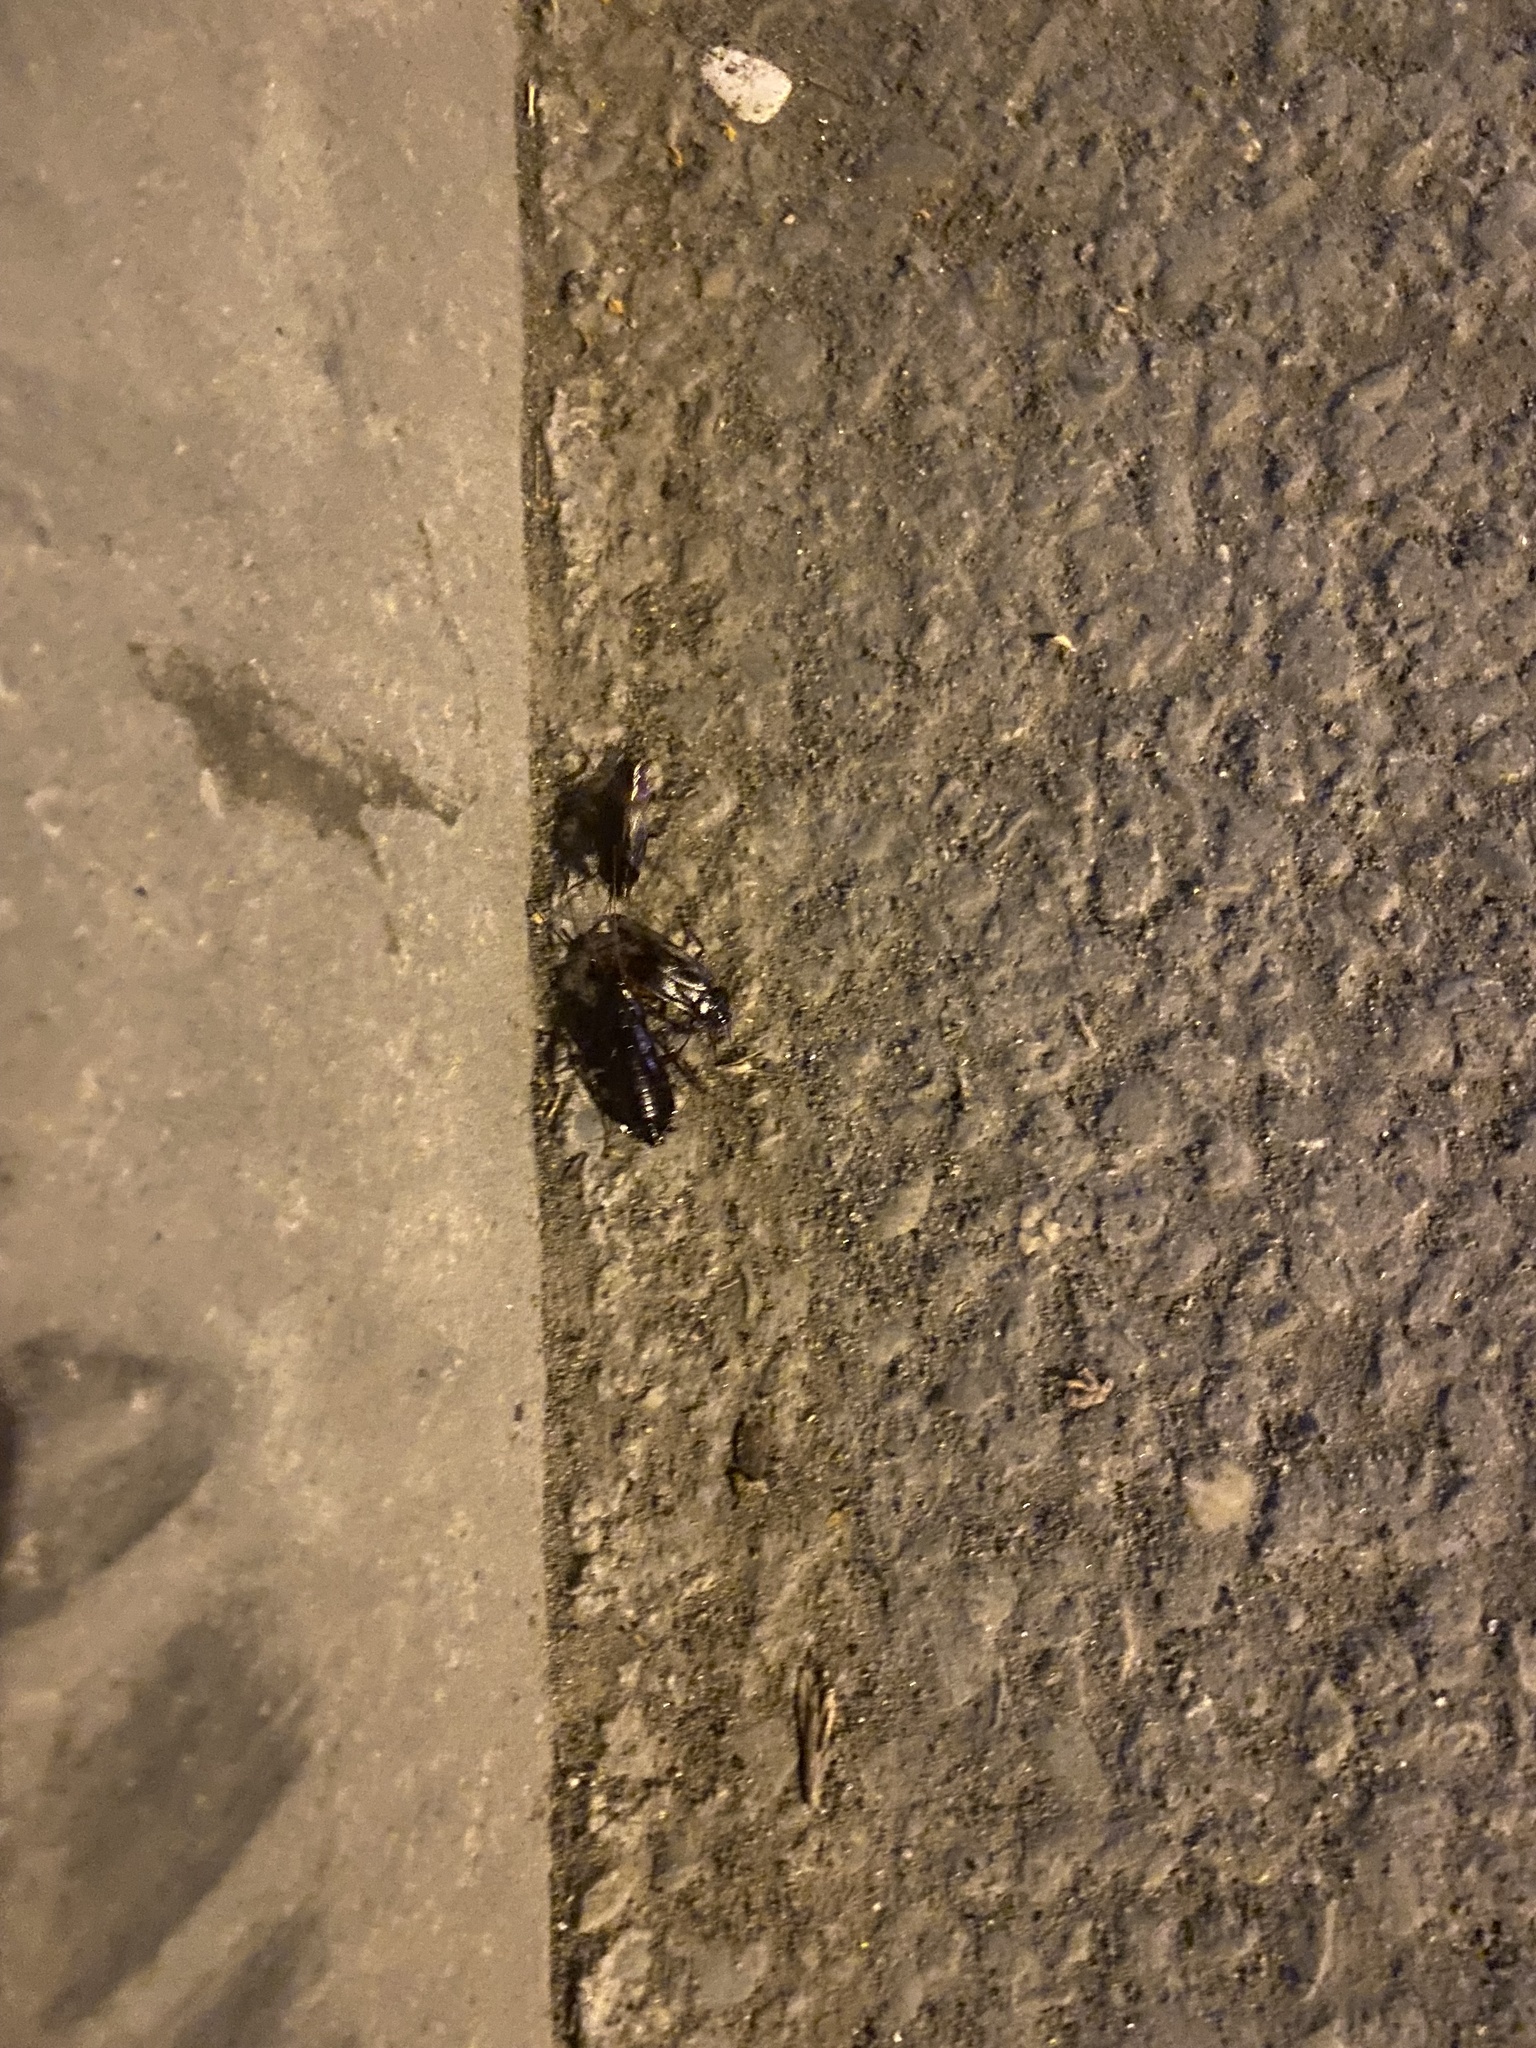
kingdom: Animalia
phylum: Arthropoda
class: Insecta
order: Blattodea
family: Blattidae
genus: Blatta
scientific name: Blatta orientalis
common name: Oriental cockroach
